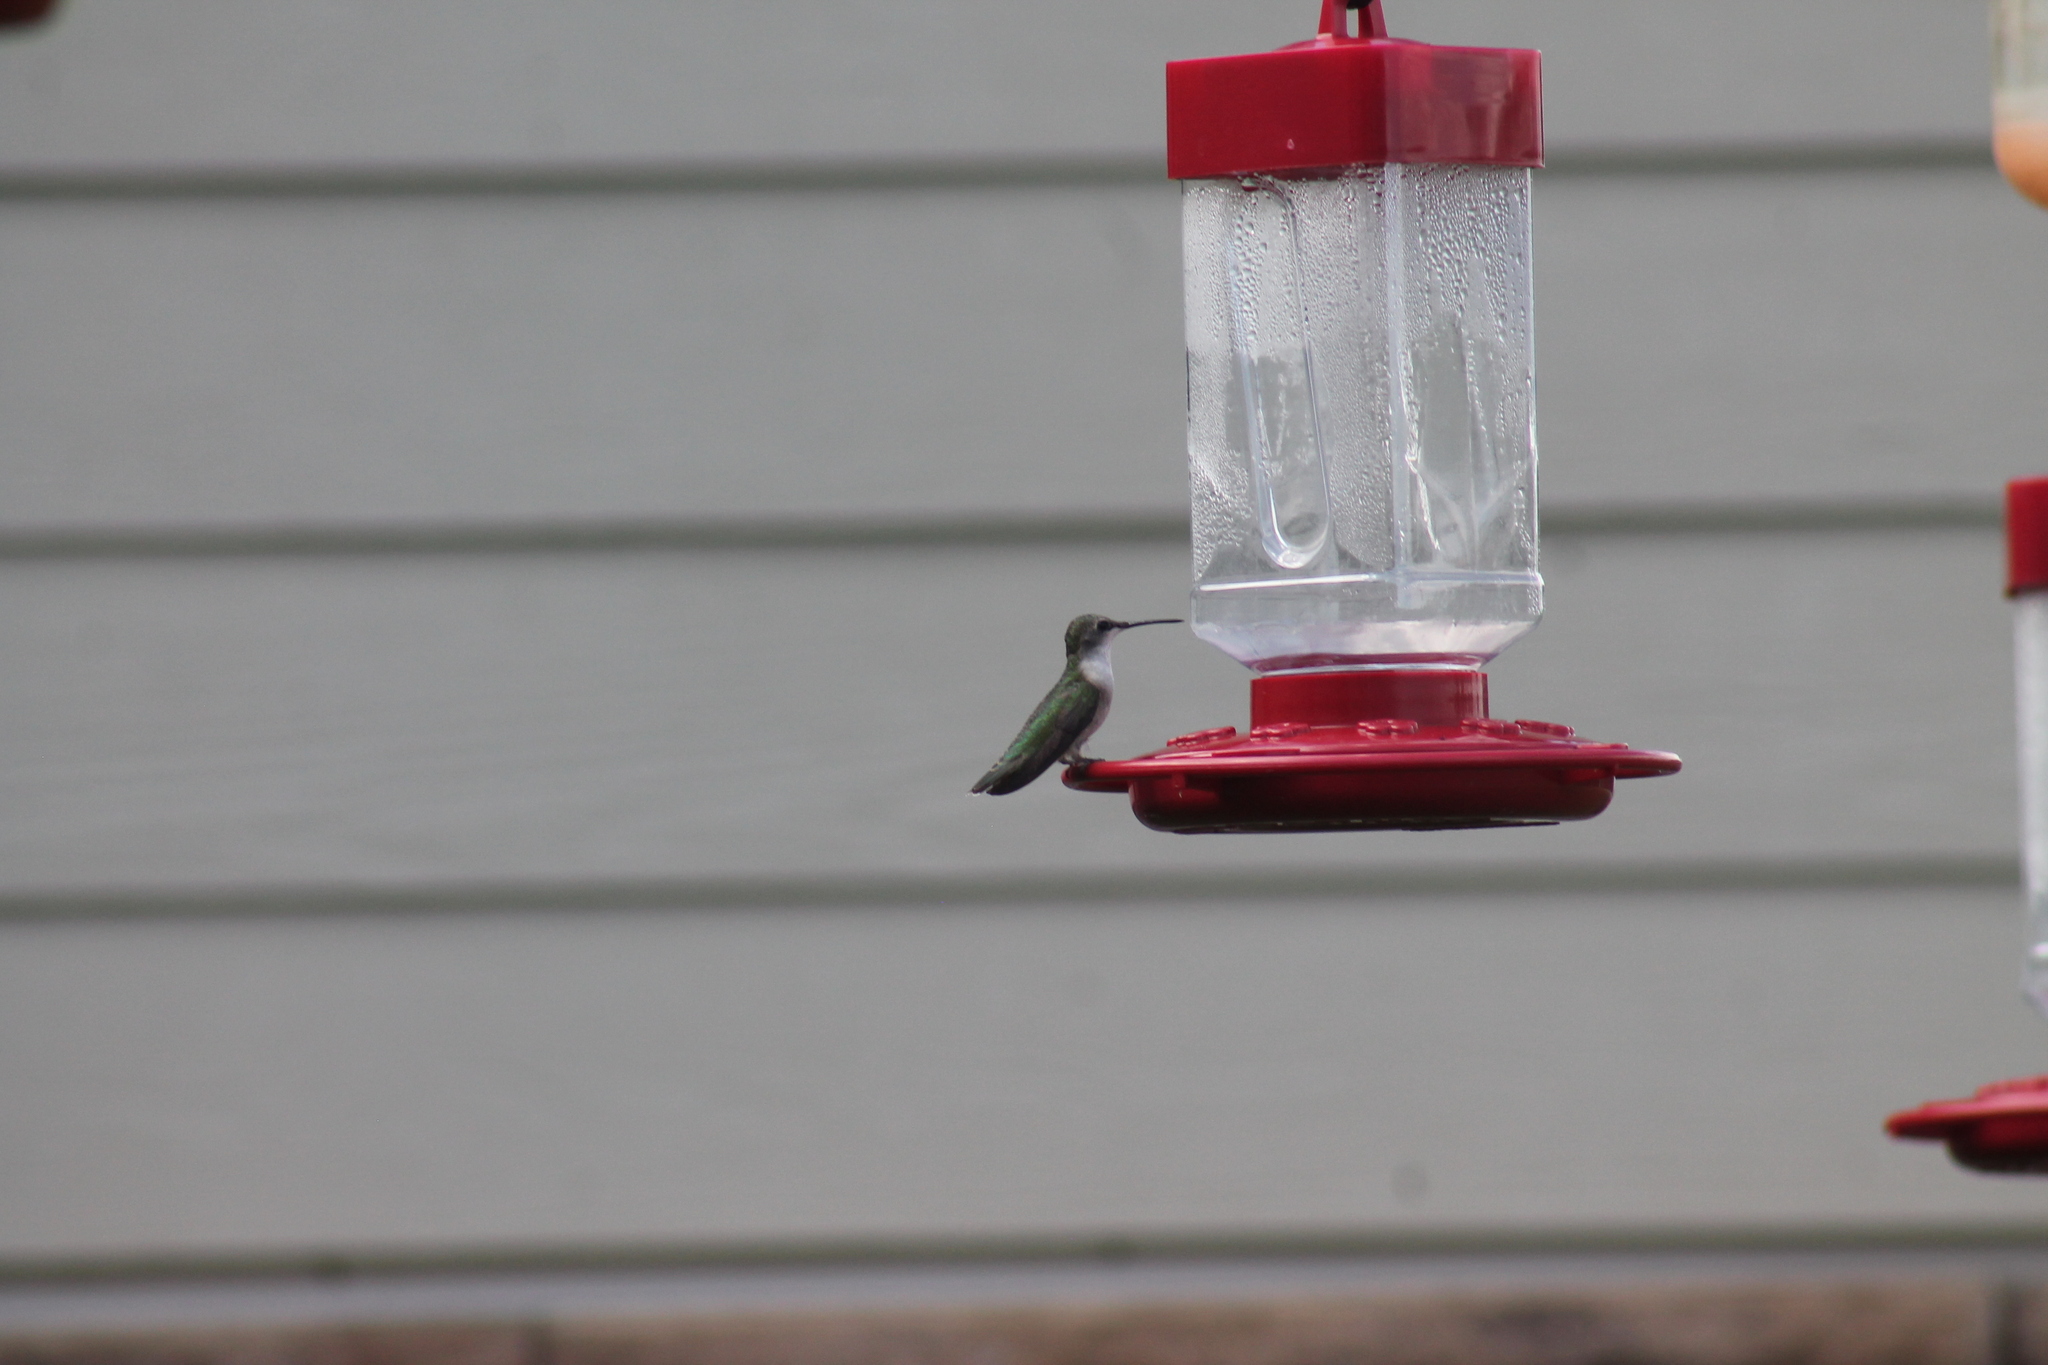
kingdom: Animalia
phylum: Chordata
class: Aves
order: Apodiformes
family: Trochilidae
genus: Archilochus
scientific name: Archilochus colubris
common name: Ruby-throated hummingbird
